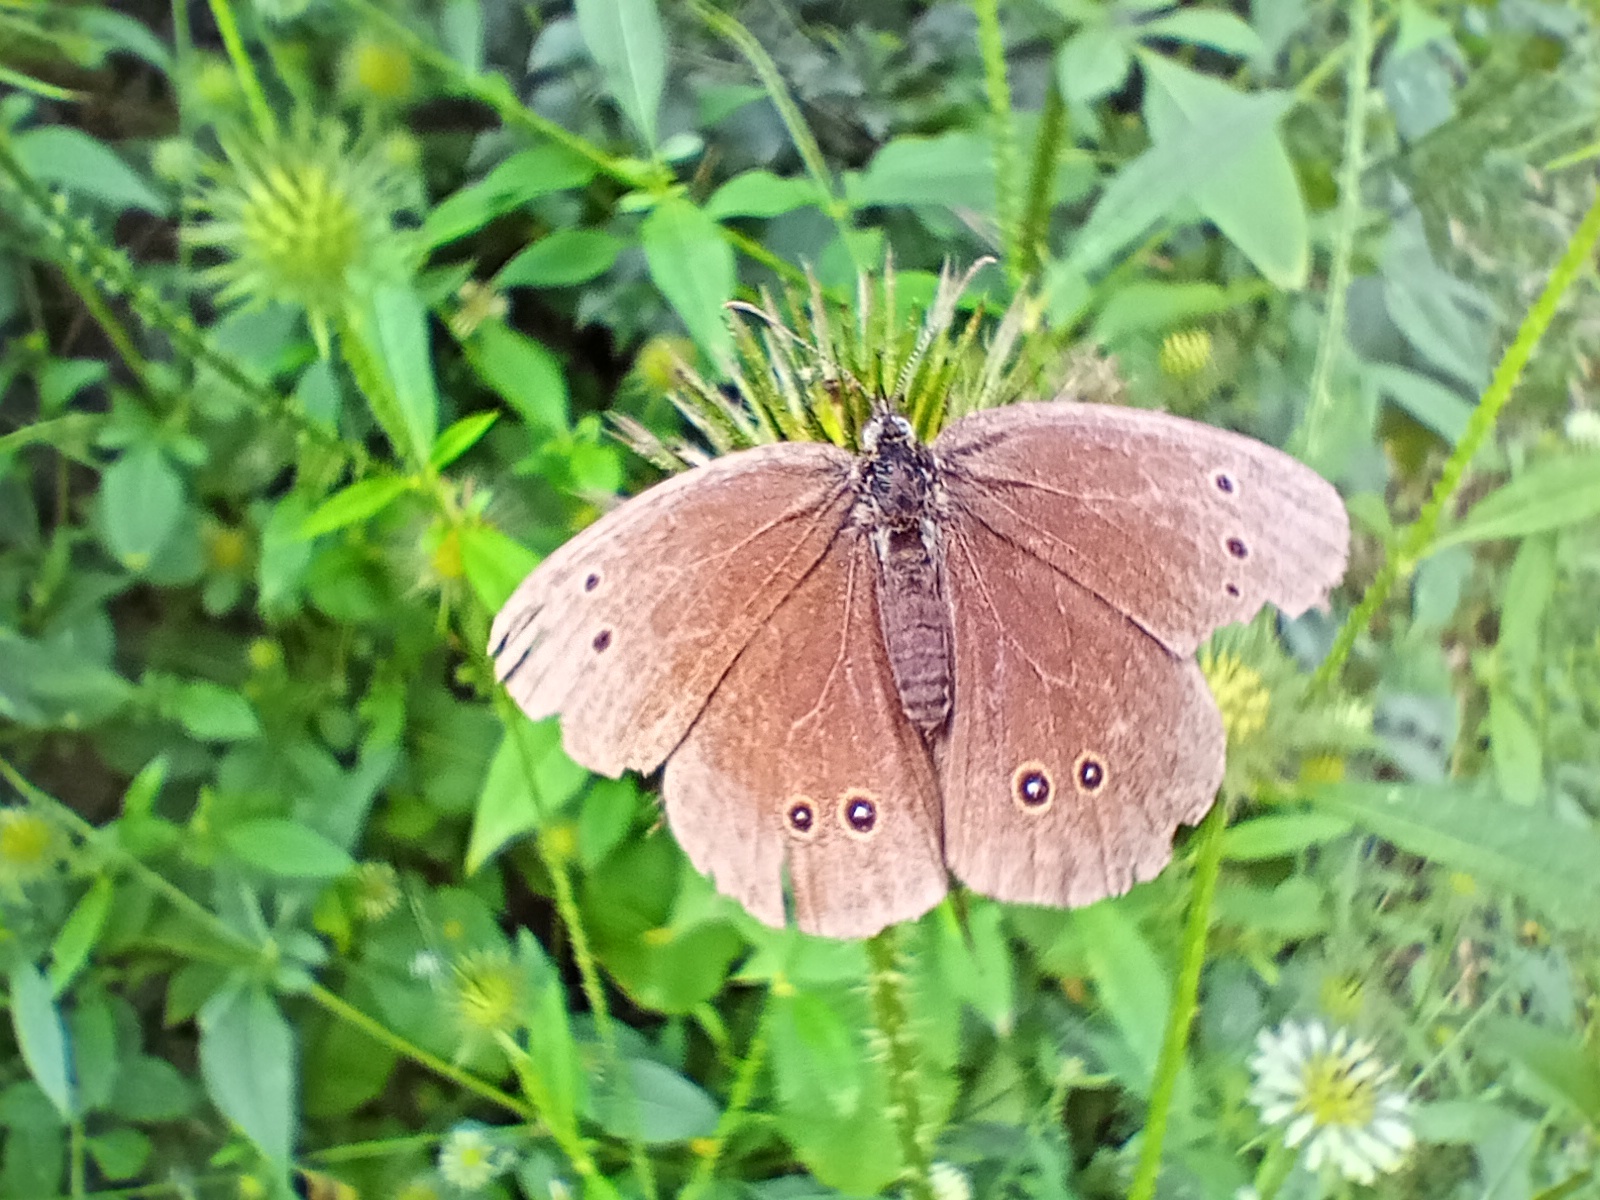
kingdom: Animalia
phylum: Arthropoda
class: Insecta
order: Lepidoptera
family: Nymphalidae
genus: Aphantopus
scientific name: Aphantopus hyperantus
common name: Ringlet
